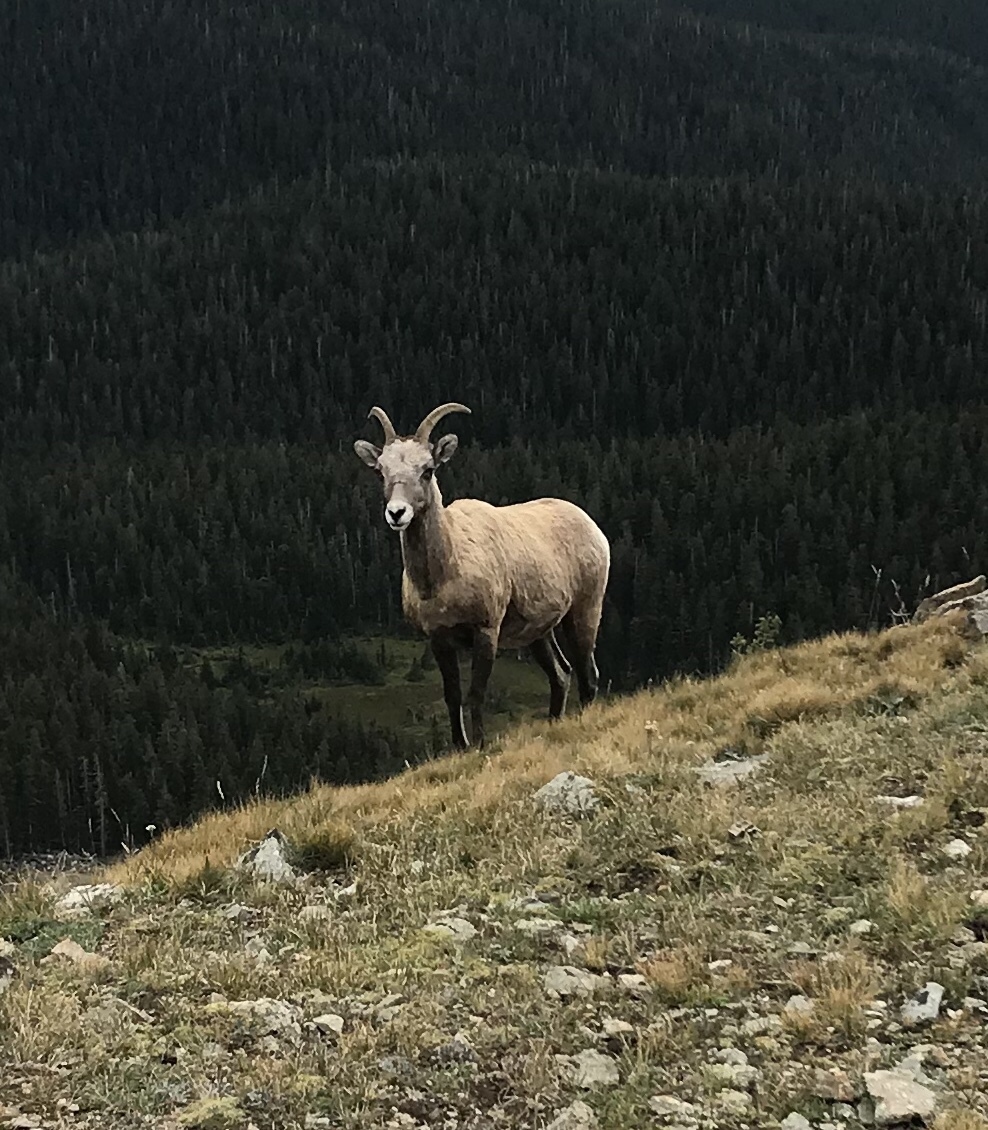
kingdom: Animalia
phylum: Chordata
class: Mammalia
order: Artiodactyla
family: Bovidae
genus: Ovis
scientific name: Ovis canadensis
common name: Bighorn sheep
